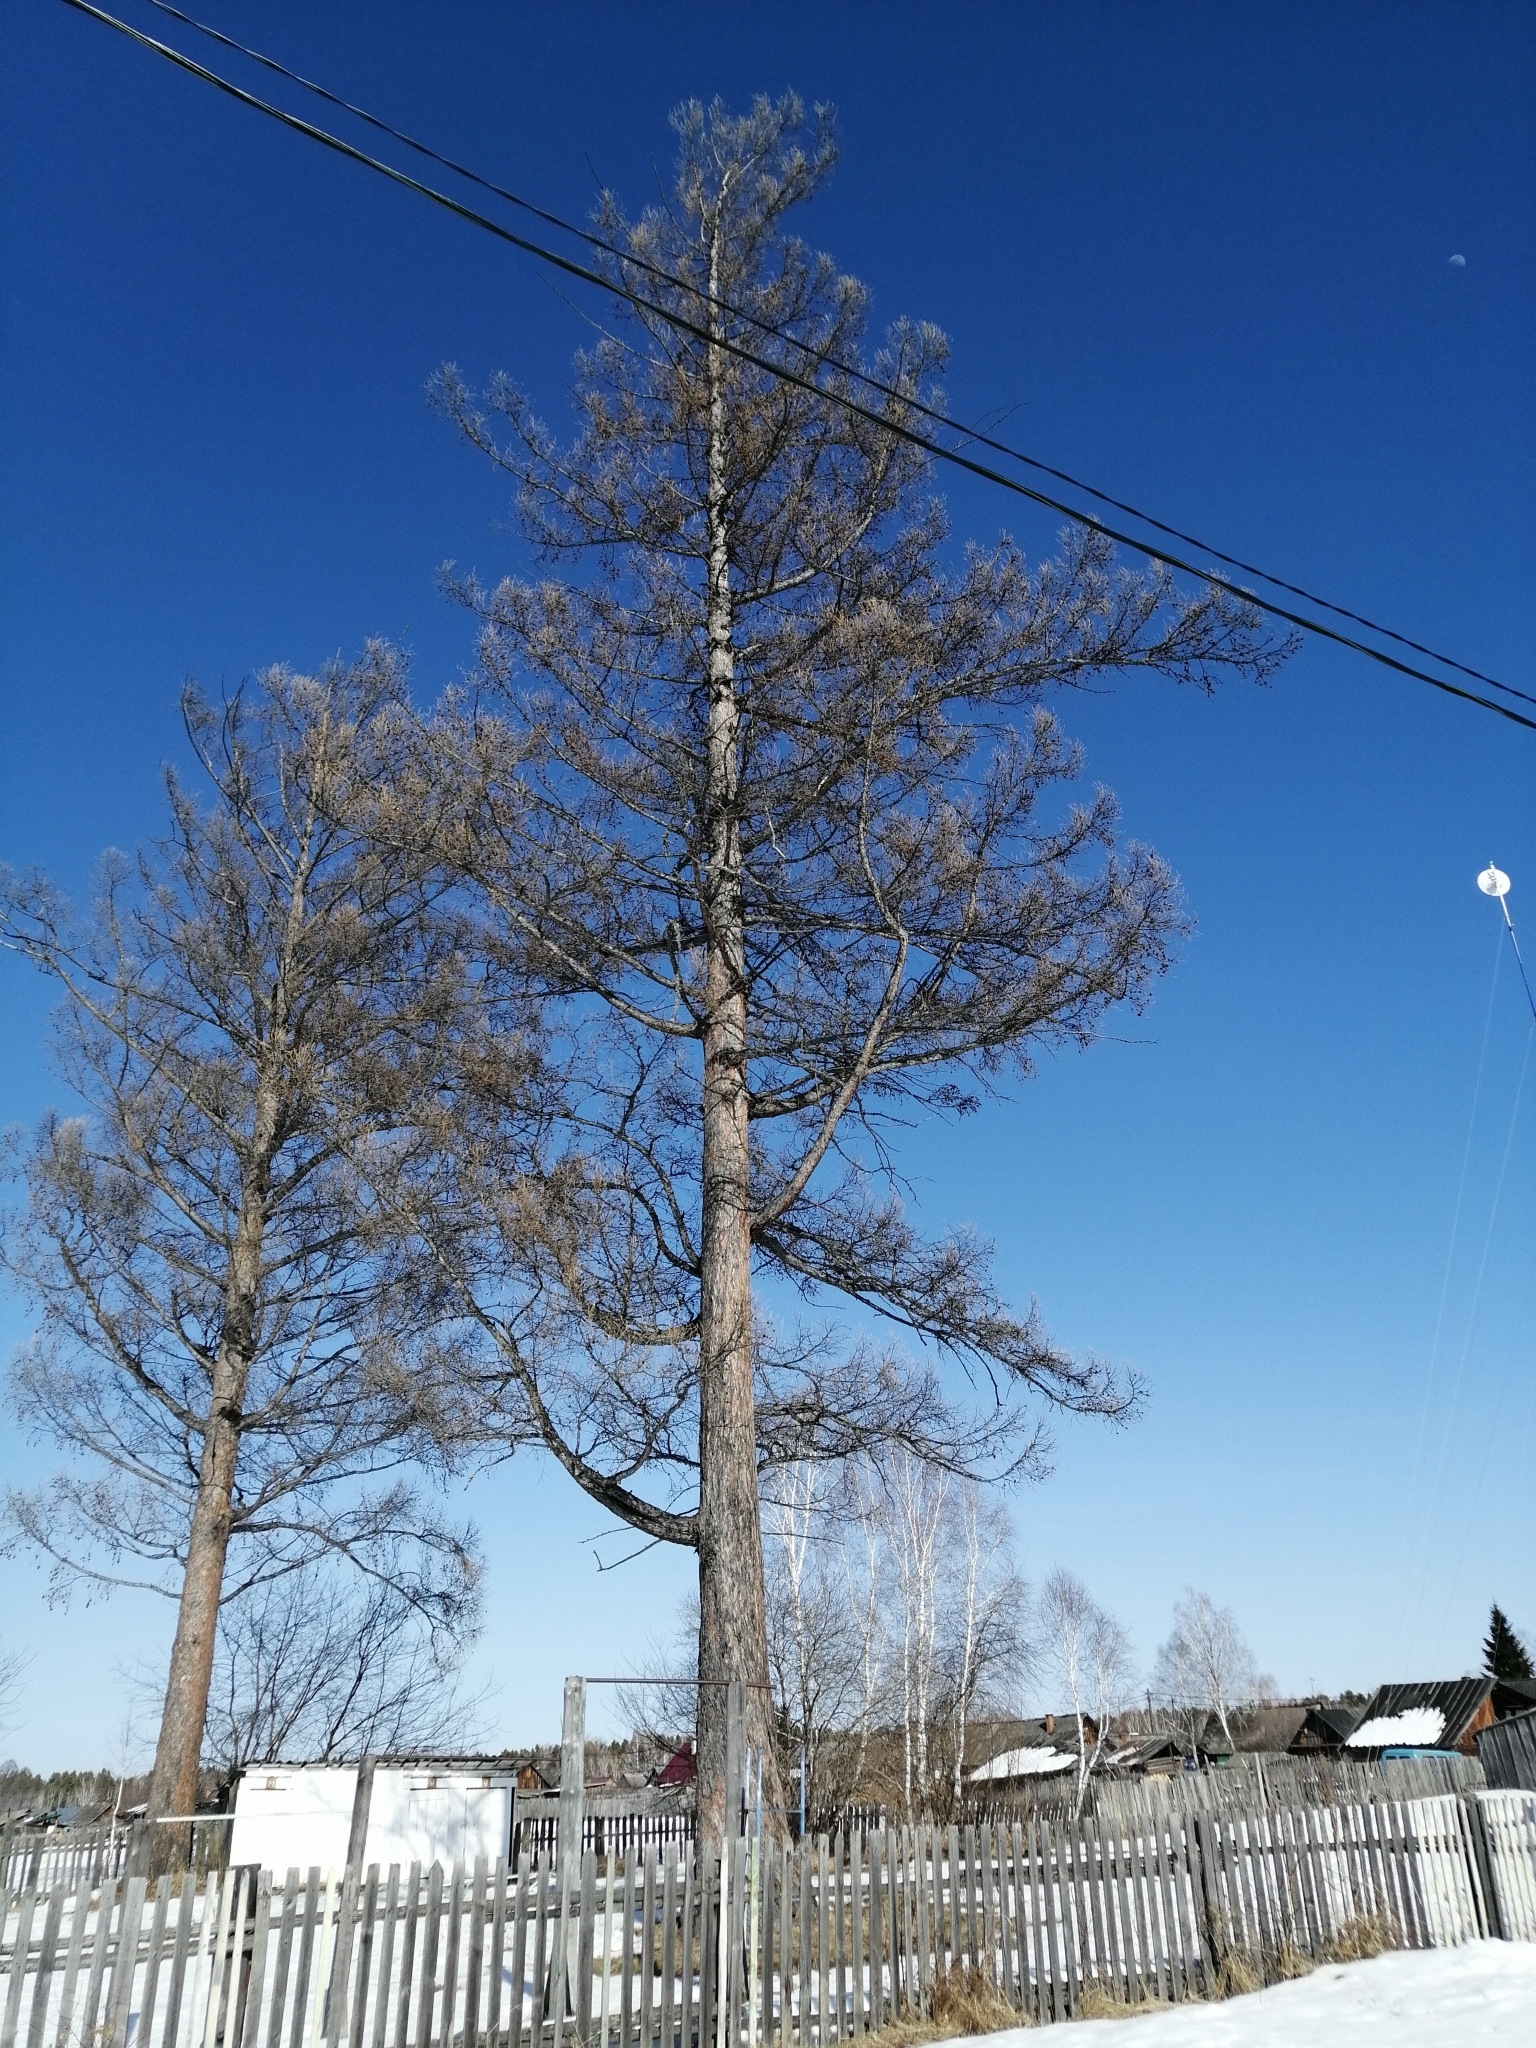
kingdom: Plantae
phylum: Tracheophyta
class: Pinopsida
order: Pinales
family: Pinaceae
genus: Larix
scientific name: Larix sibirica
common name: Siberian larch
